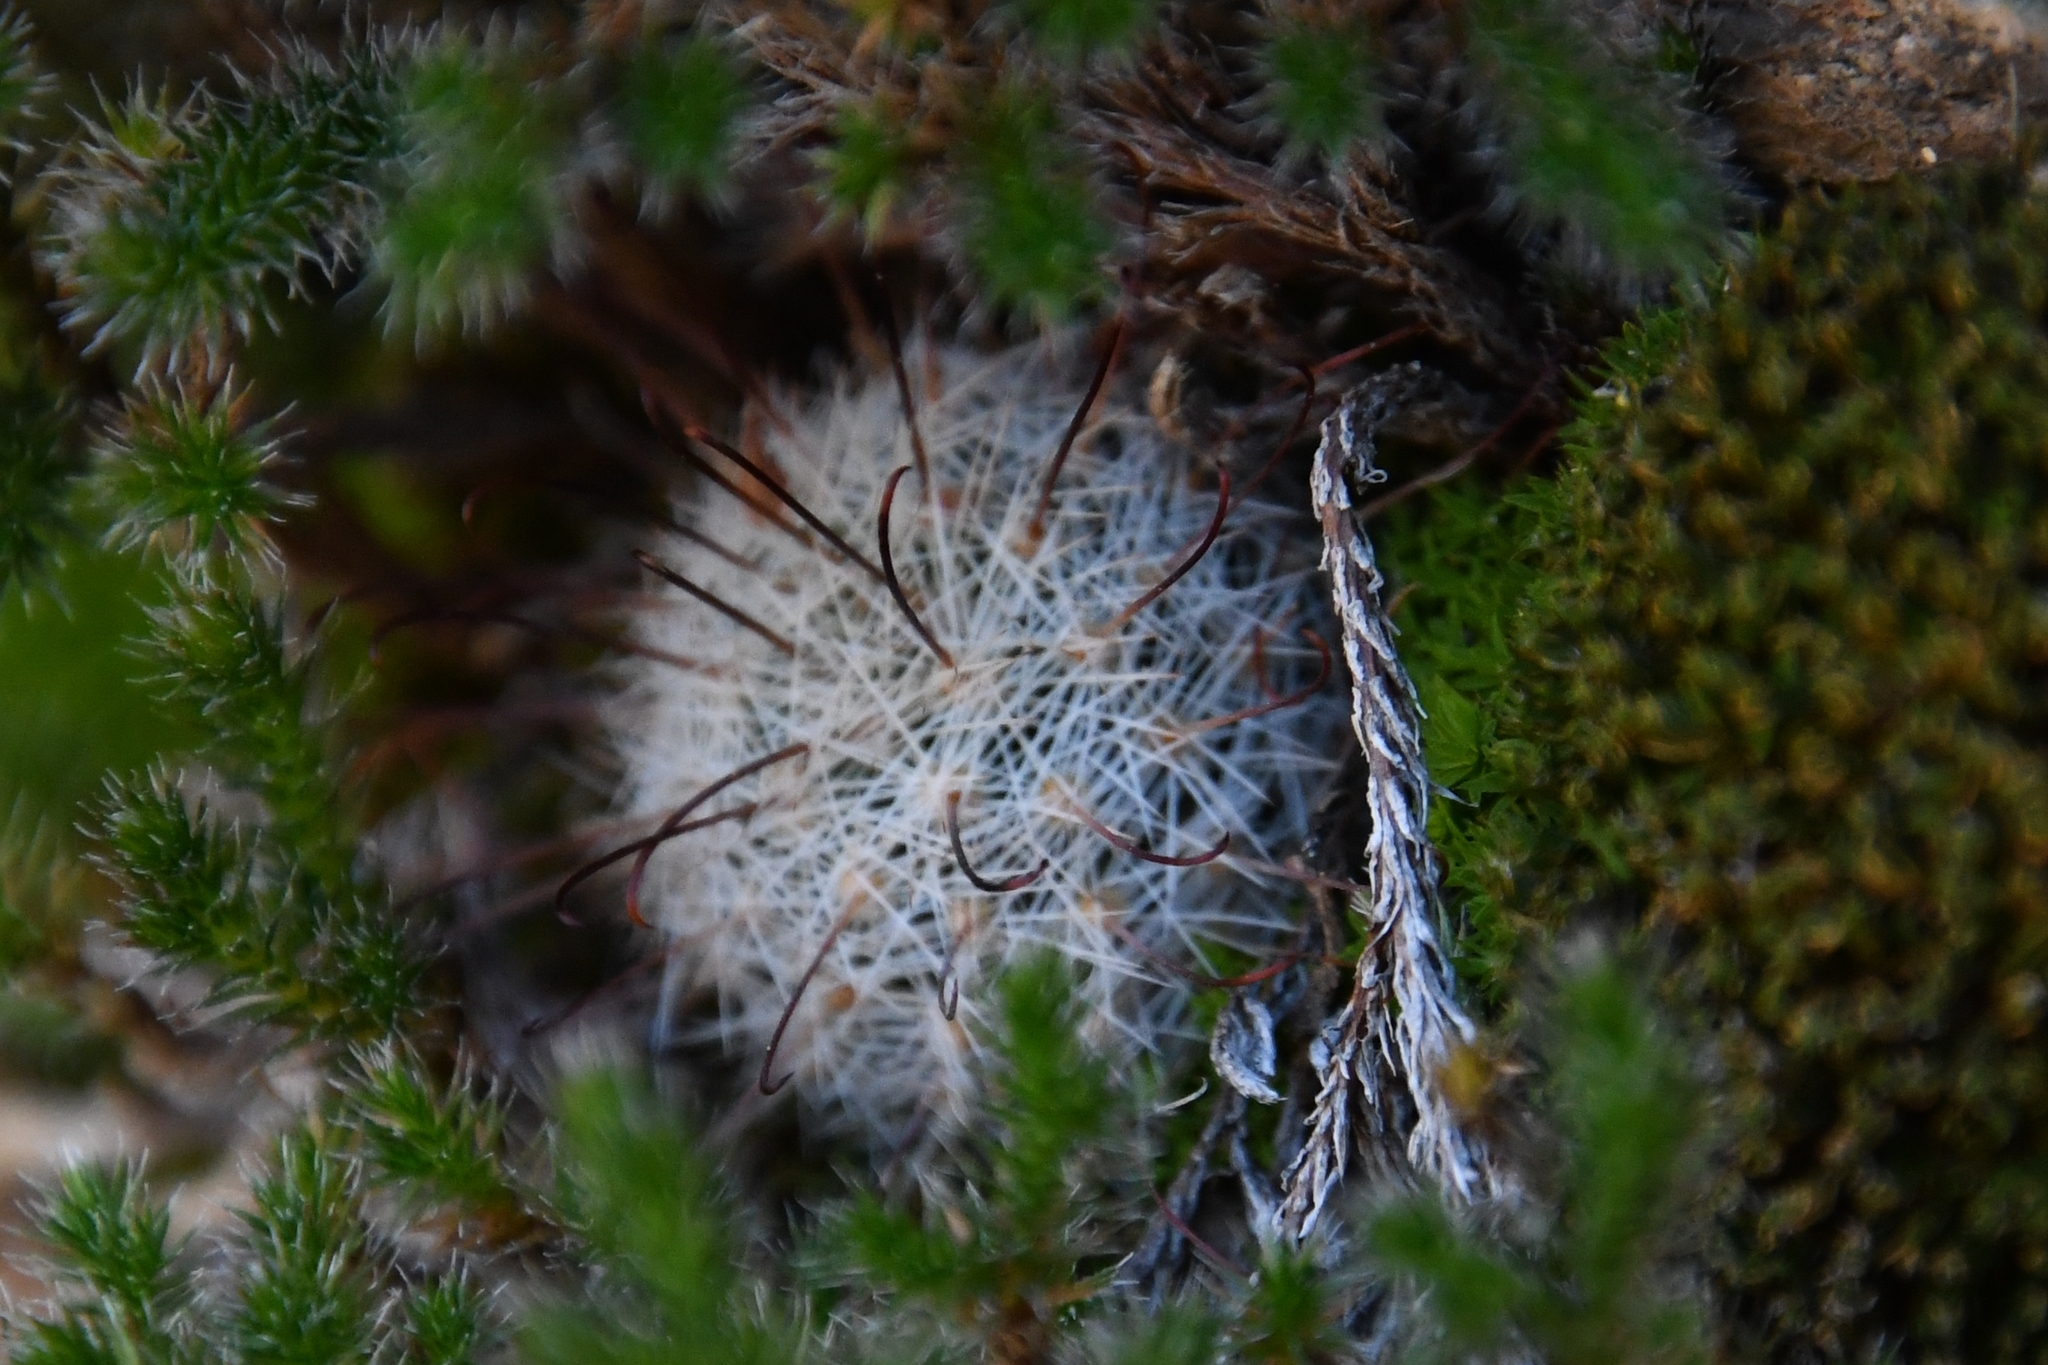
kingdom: Plantae
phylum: Tracheophyta
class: Magnoliopsida
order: Caryophyllales
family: Cactaceae
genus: Cochemiea
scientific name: Cochemiea grahamii
